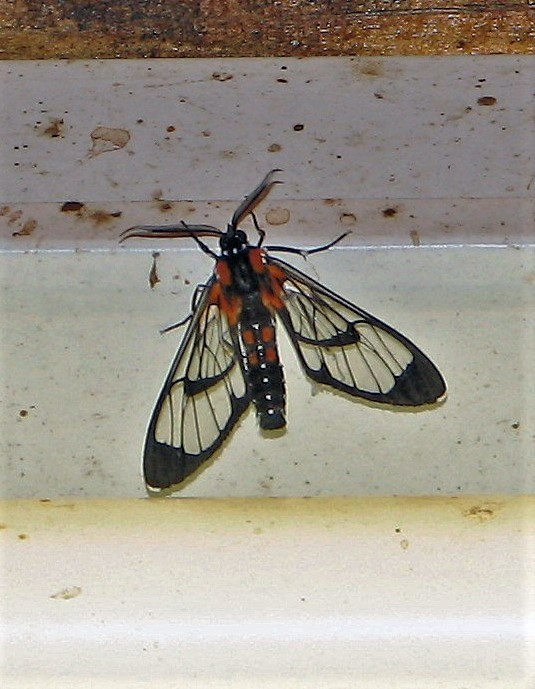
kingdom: Animalia
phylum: Arthropoda
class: Insecta
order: Lepidoptera
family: Erebidae
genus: Cosmosoma
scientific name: Cosmosoma Erruca hanga
